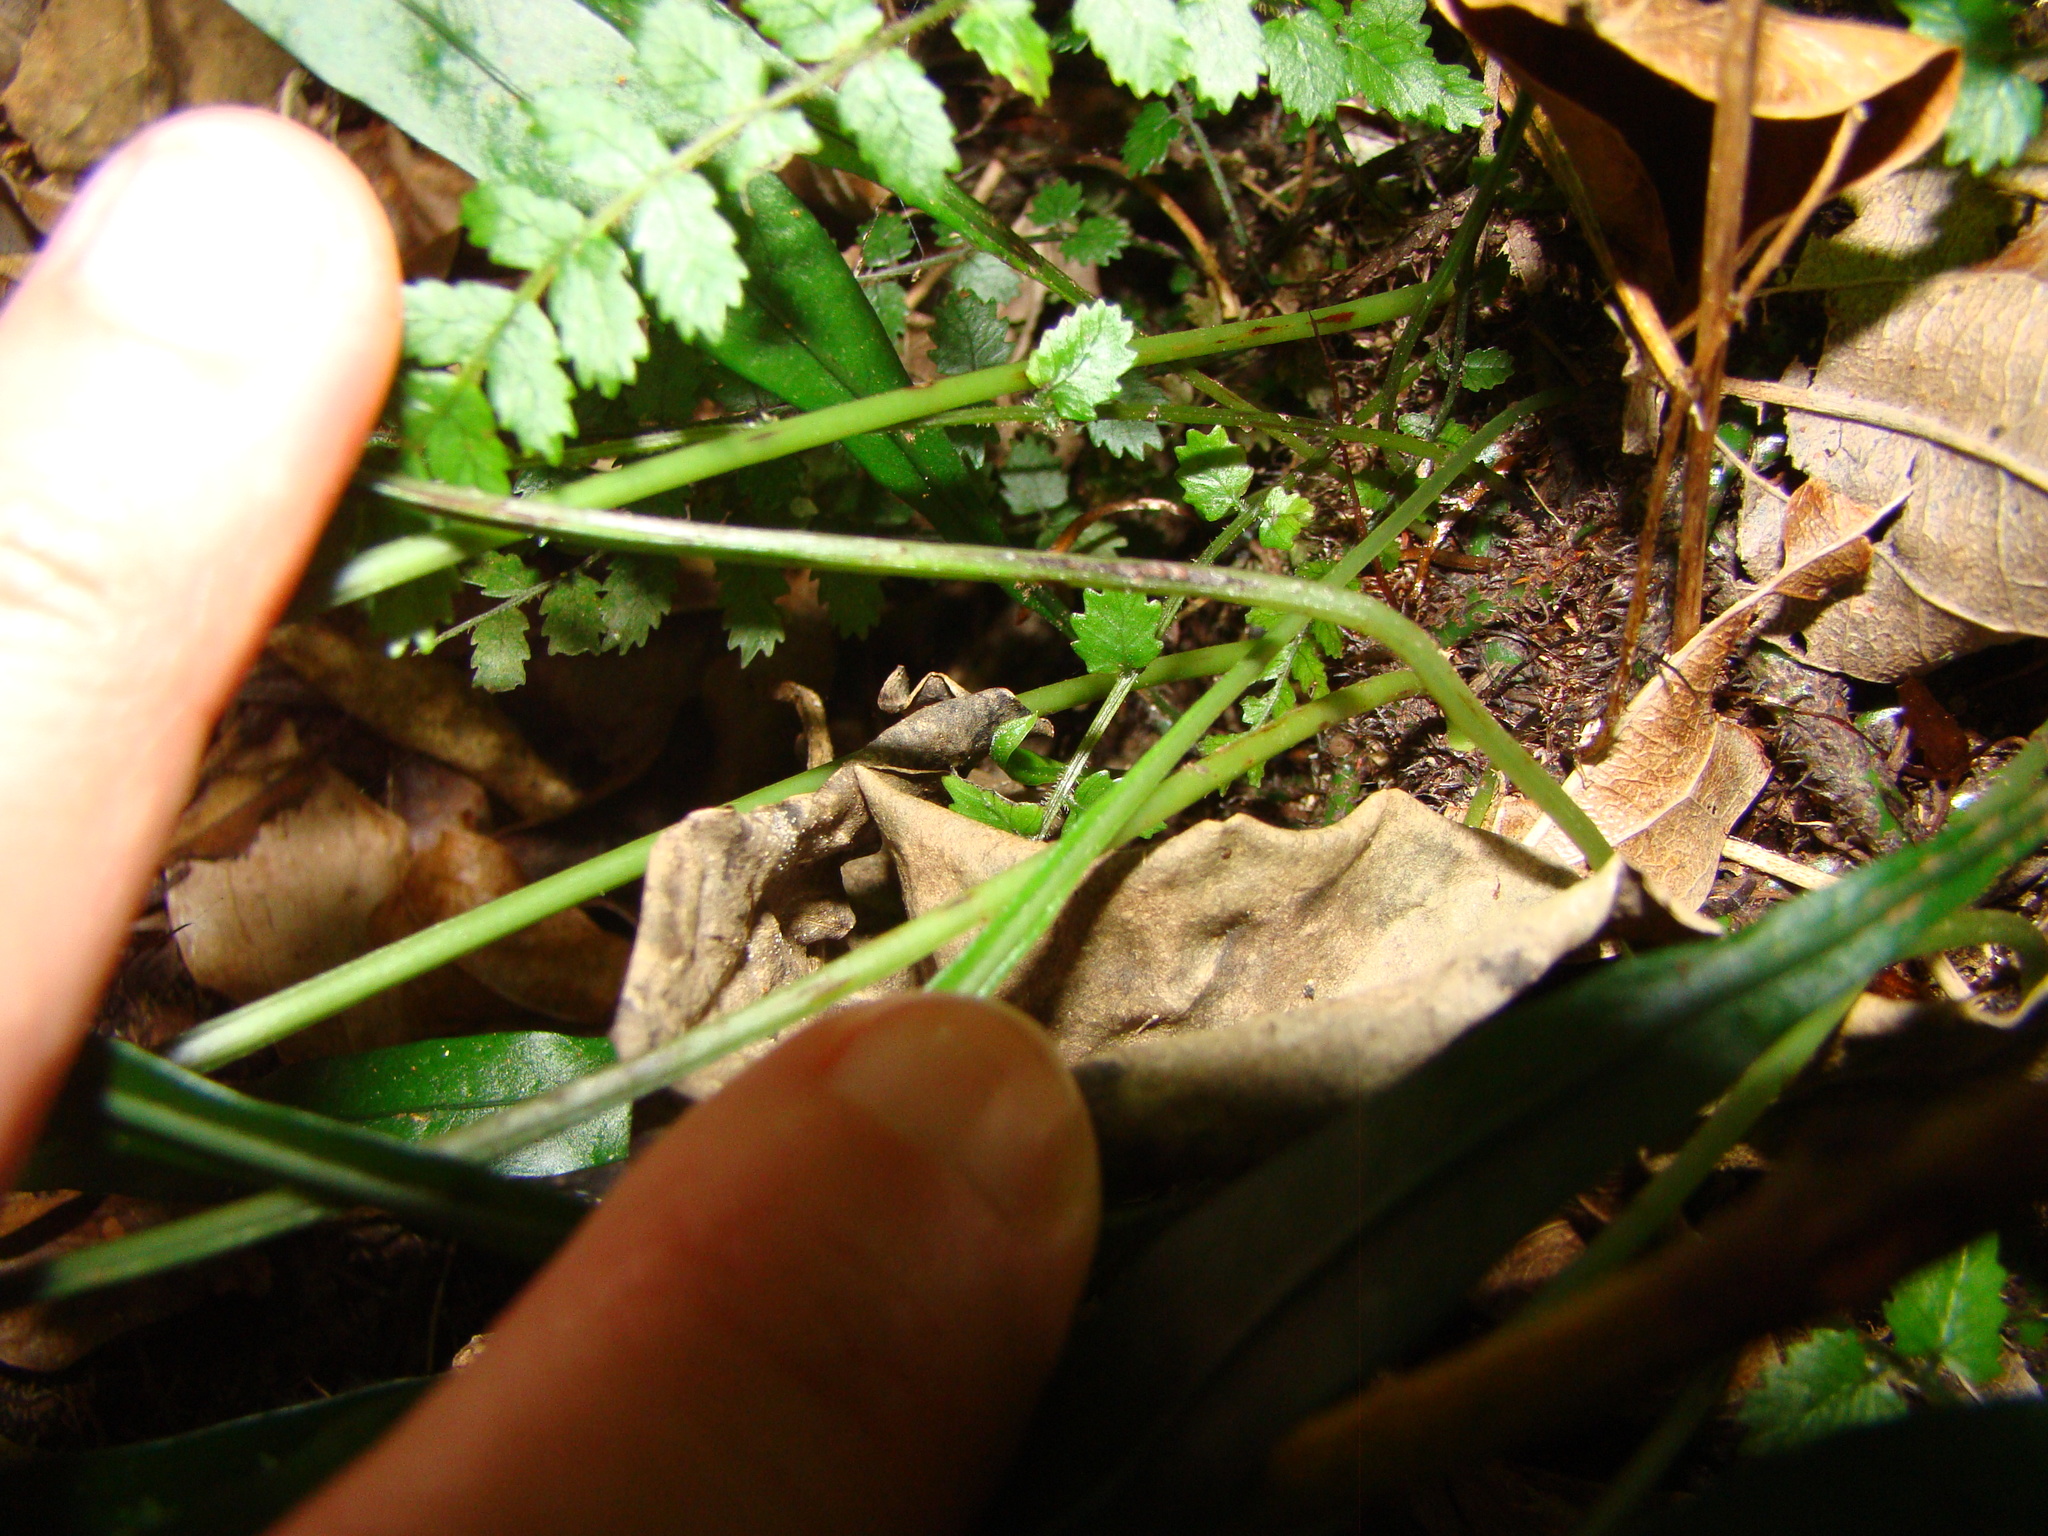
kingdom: Plantae
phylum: Tracheophyta
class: Polypodiopsida
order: Polypodiales
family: Polypodiaceae
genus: Lecanopteris
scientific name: Lecanopteris scandens
